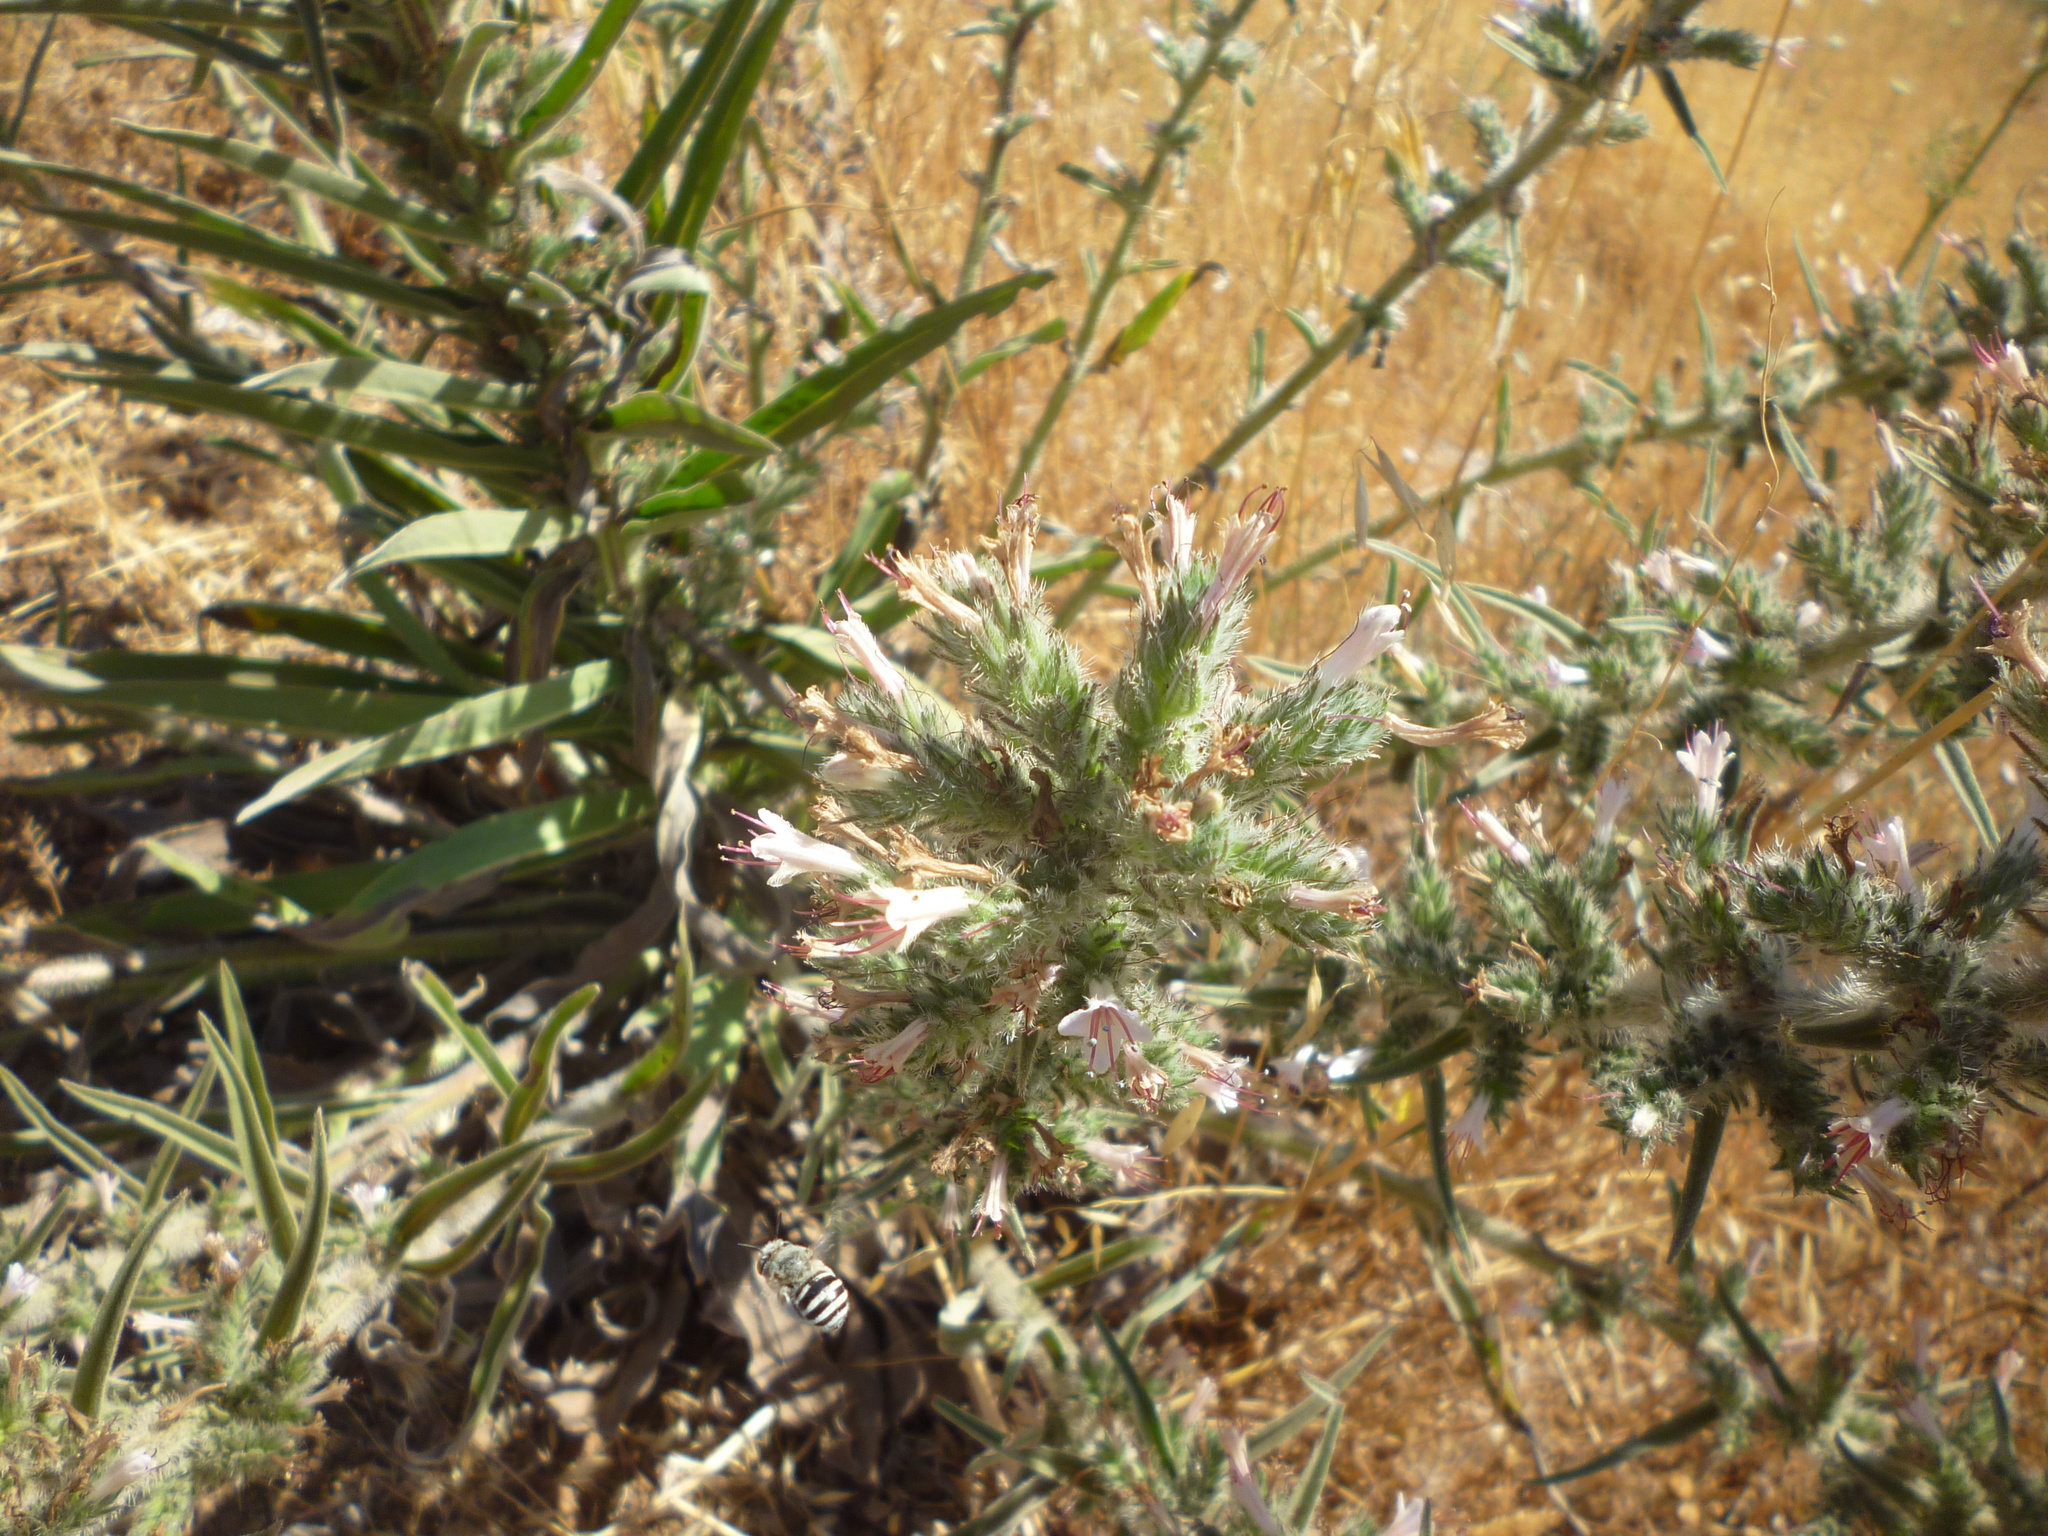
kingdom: Plantae
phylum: Tracheophyta
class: Magnoliopsida
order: Boraginales
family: Boraginaceae
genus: Echium
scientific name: Echium glomeratum
